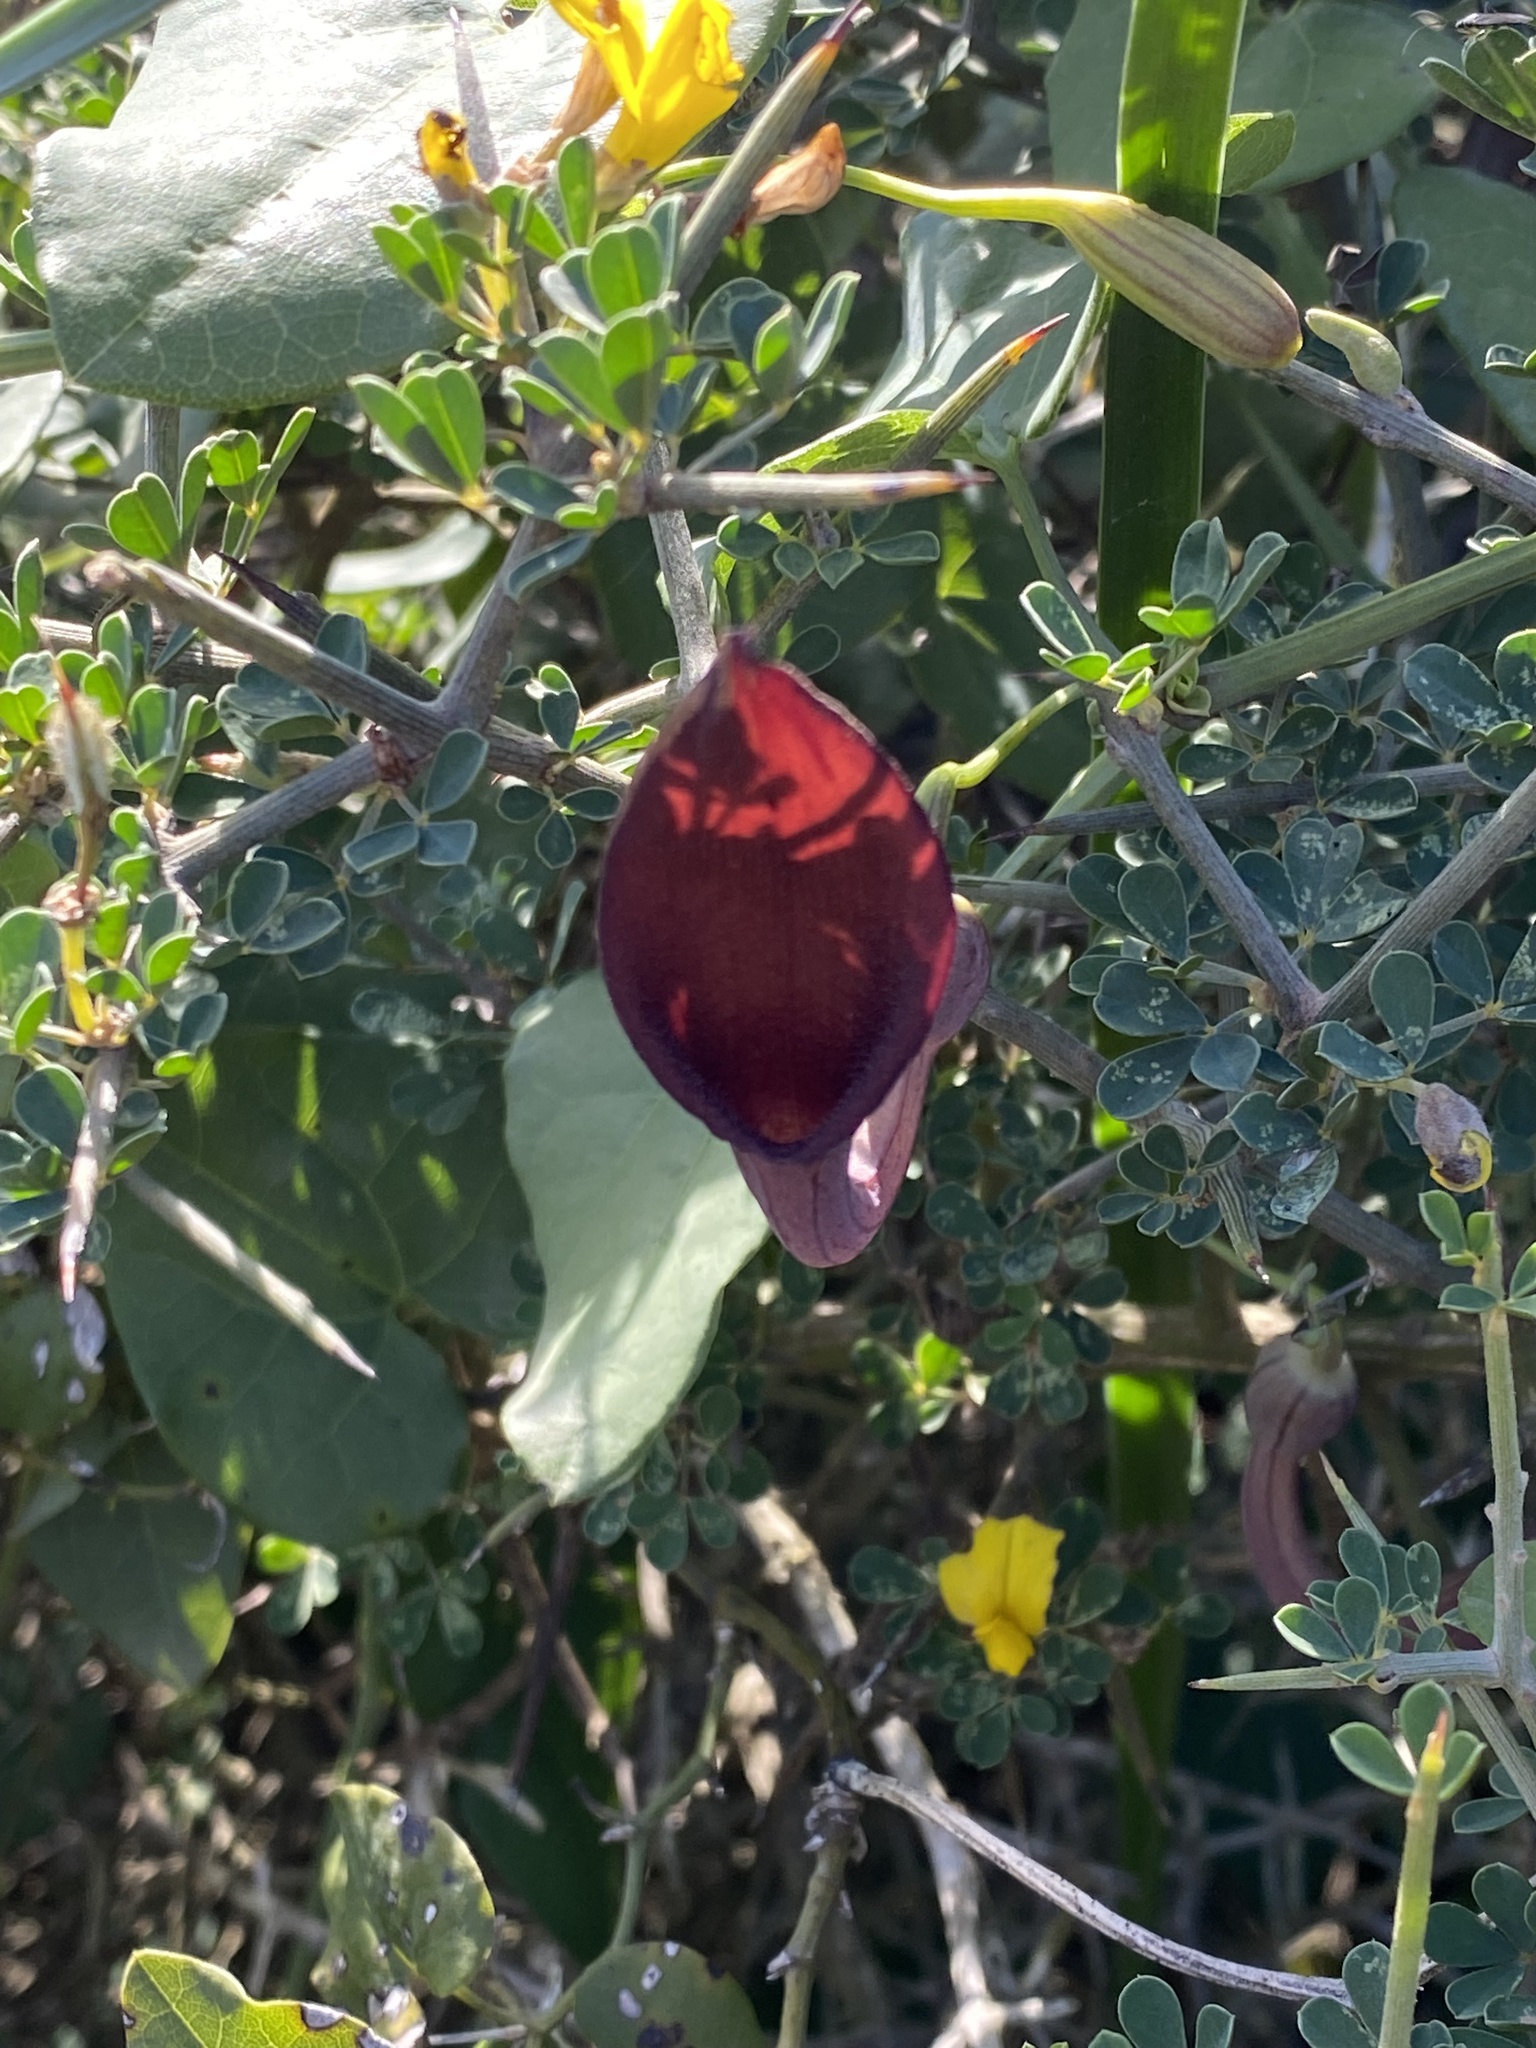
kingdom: Plantae
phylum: Tracheophyta
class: Magnoliopsida
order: Piperales
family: Aristolochiaceae
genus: Aristolochia
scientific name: Aristolochia baetica
